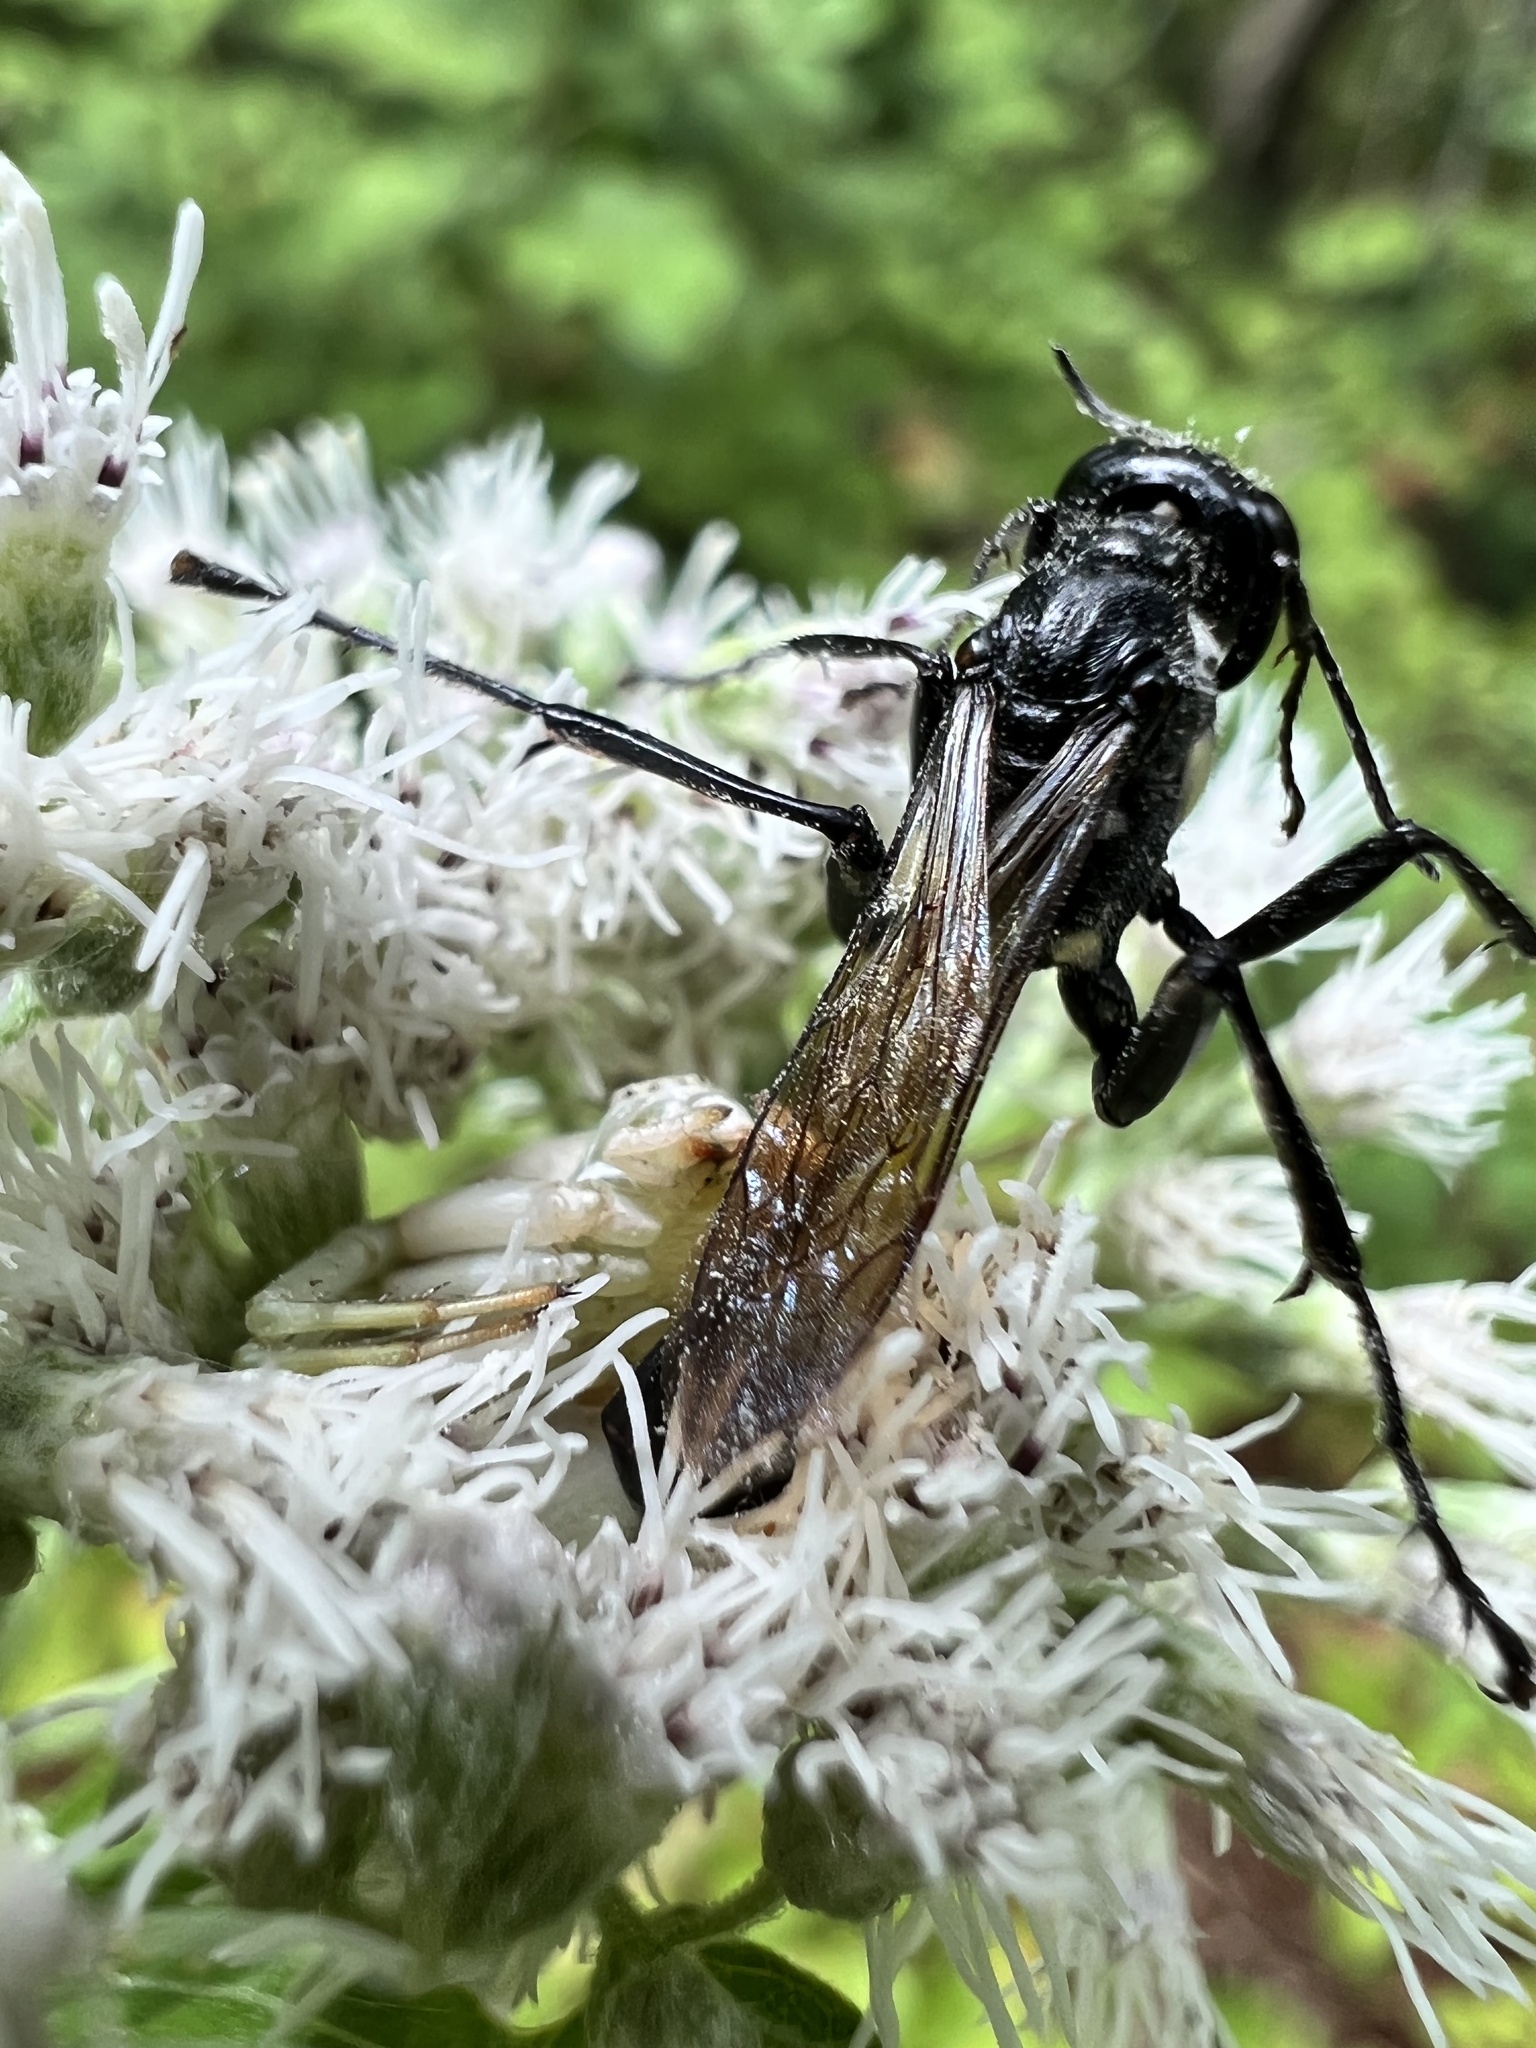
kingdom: Animalia
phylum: Arthropoda
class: Insecta
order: Hymenoptera
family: Sphecidae
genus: Eremnophila
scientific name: Eremnophila aureonotata
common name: Gold-marked thread-waisted wasp
